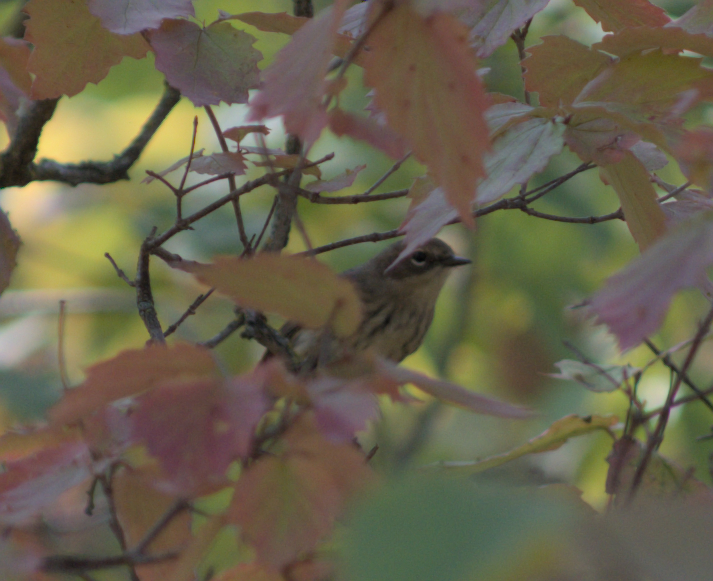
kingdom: Animalia
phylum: Chordata
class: Aves
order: Passeriformes
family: Parulidae
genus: Setophaga
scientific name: Setophaga coronata
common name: Myrtle warbler
